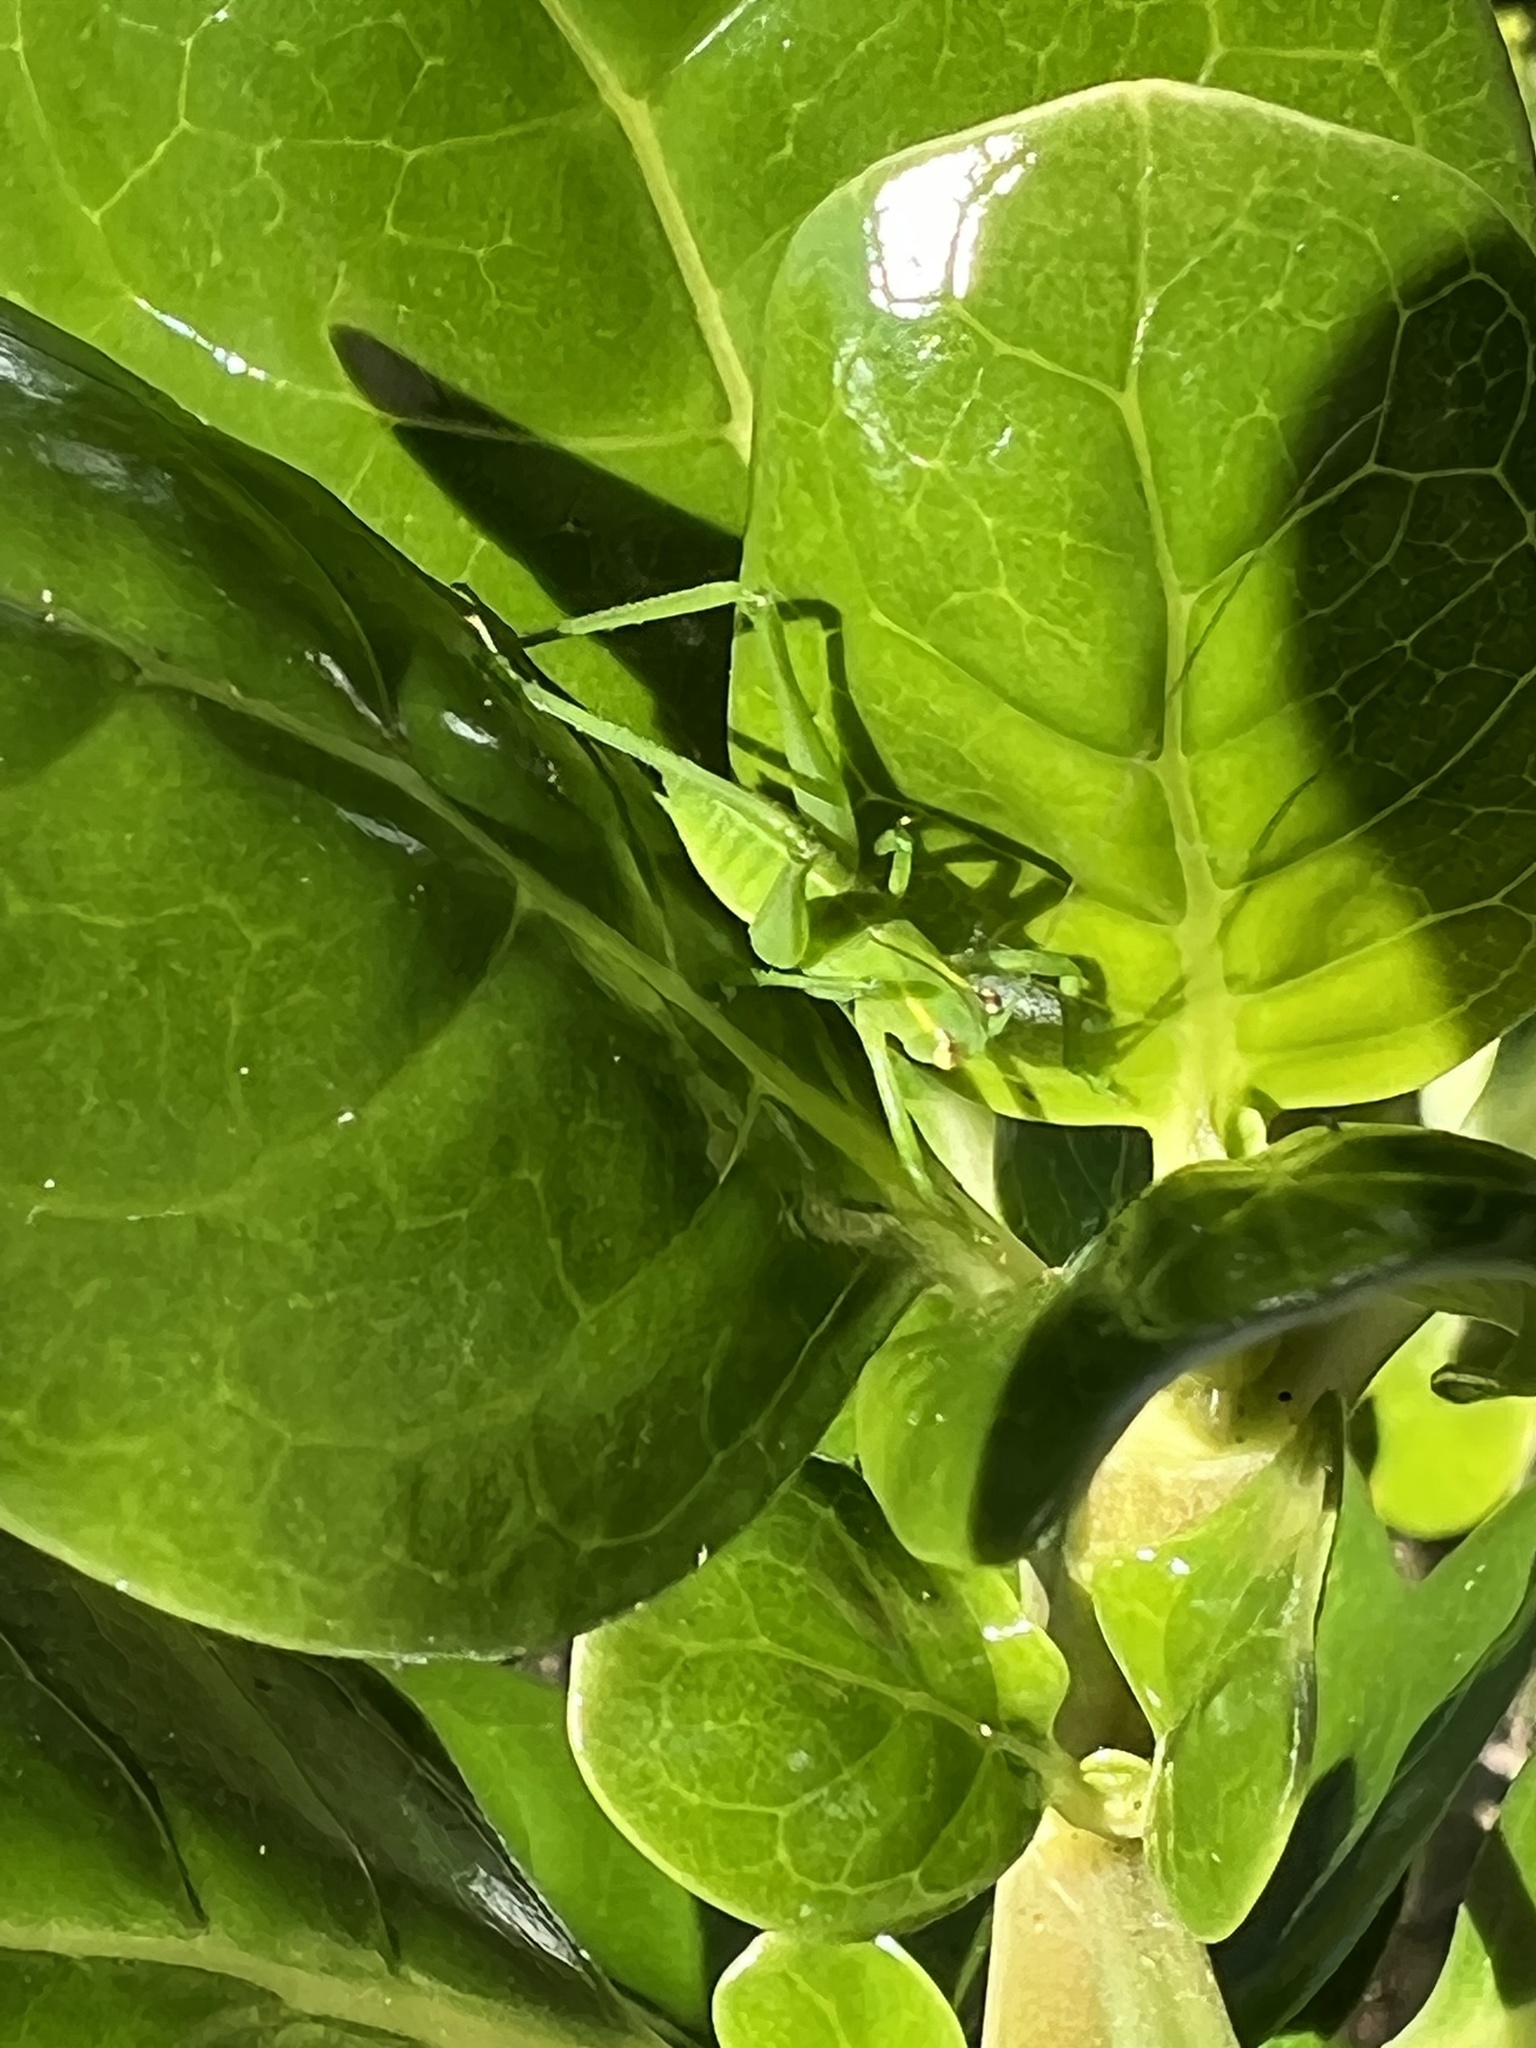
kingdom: Animalia
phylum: Arthropoda
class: Insecta
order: Orthoptera
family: Tettigoniidae
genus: Caedicia
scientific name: Caedicia simplex
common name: Common garden katydid
